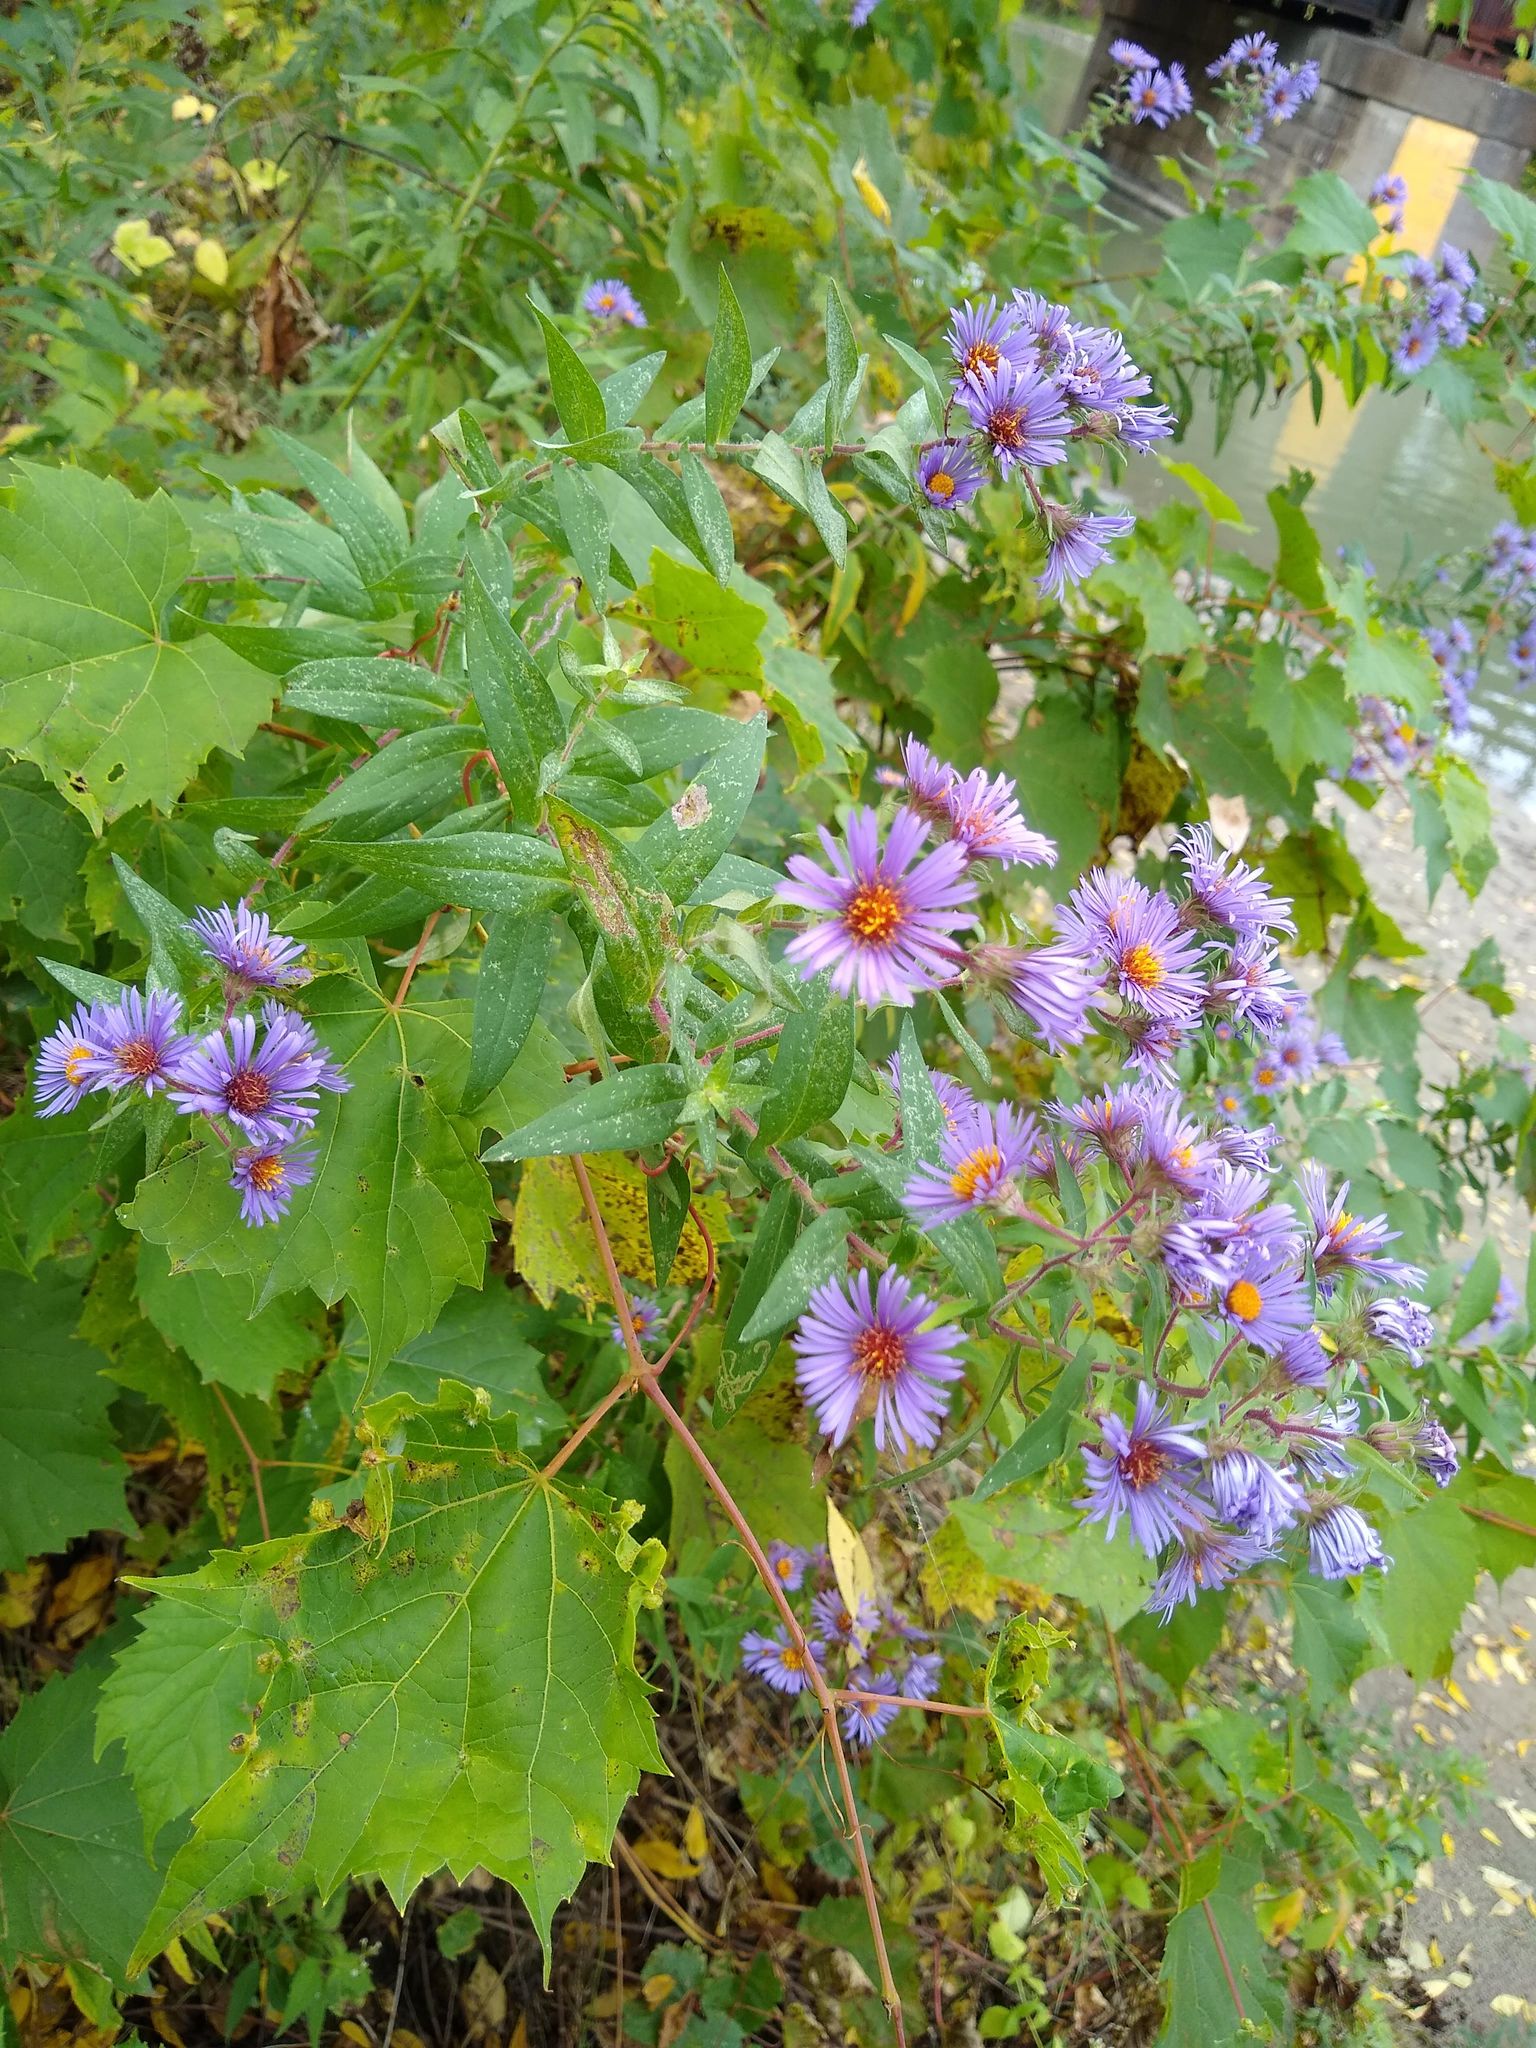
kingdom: Plantae
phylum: Tracheophyta
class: Magnoliopsida
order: Asterales
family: Asteraceae
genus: Symphyotrichum
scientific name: Symphyotrichum novae-angliae
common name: Michaelmas daisy
